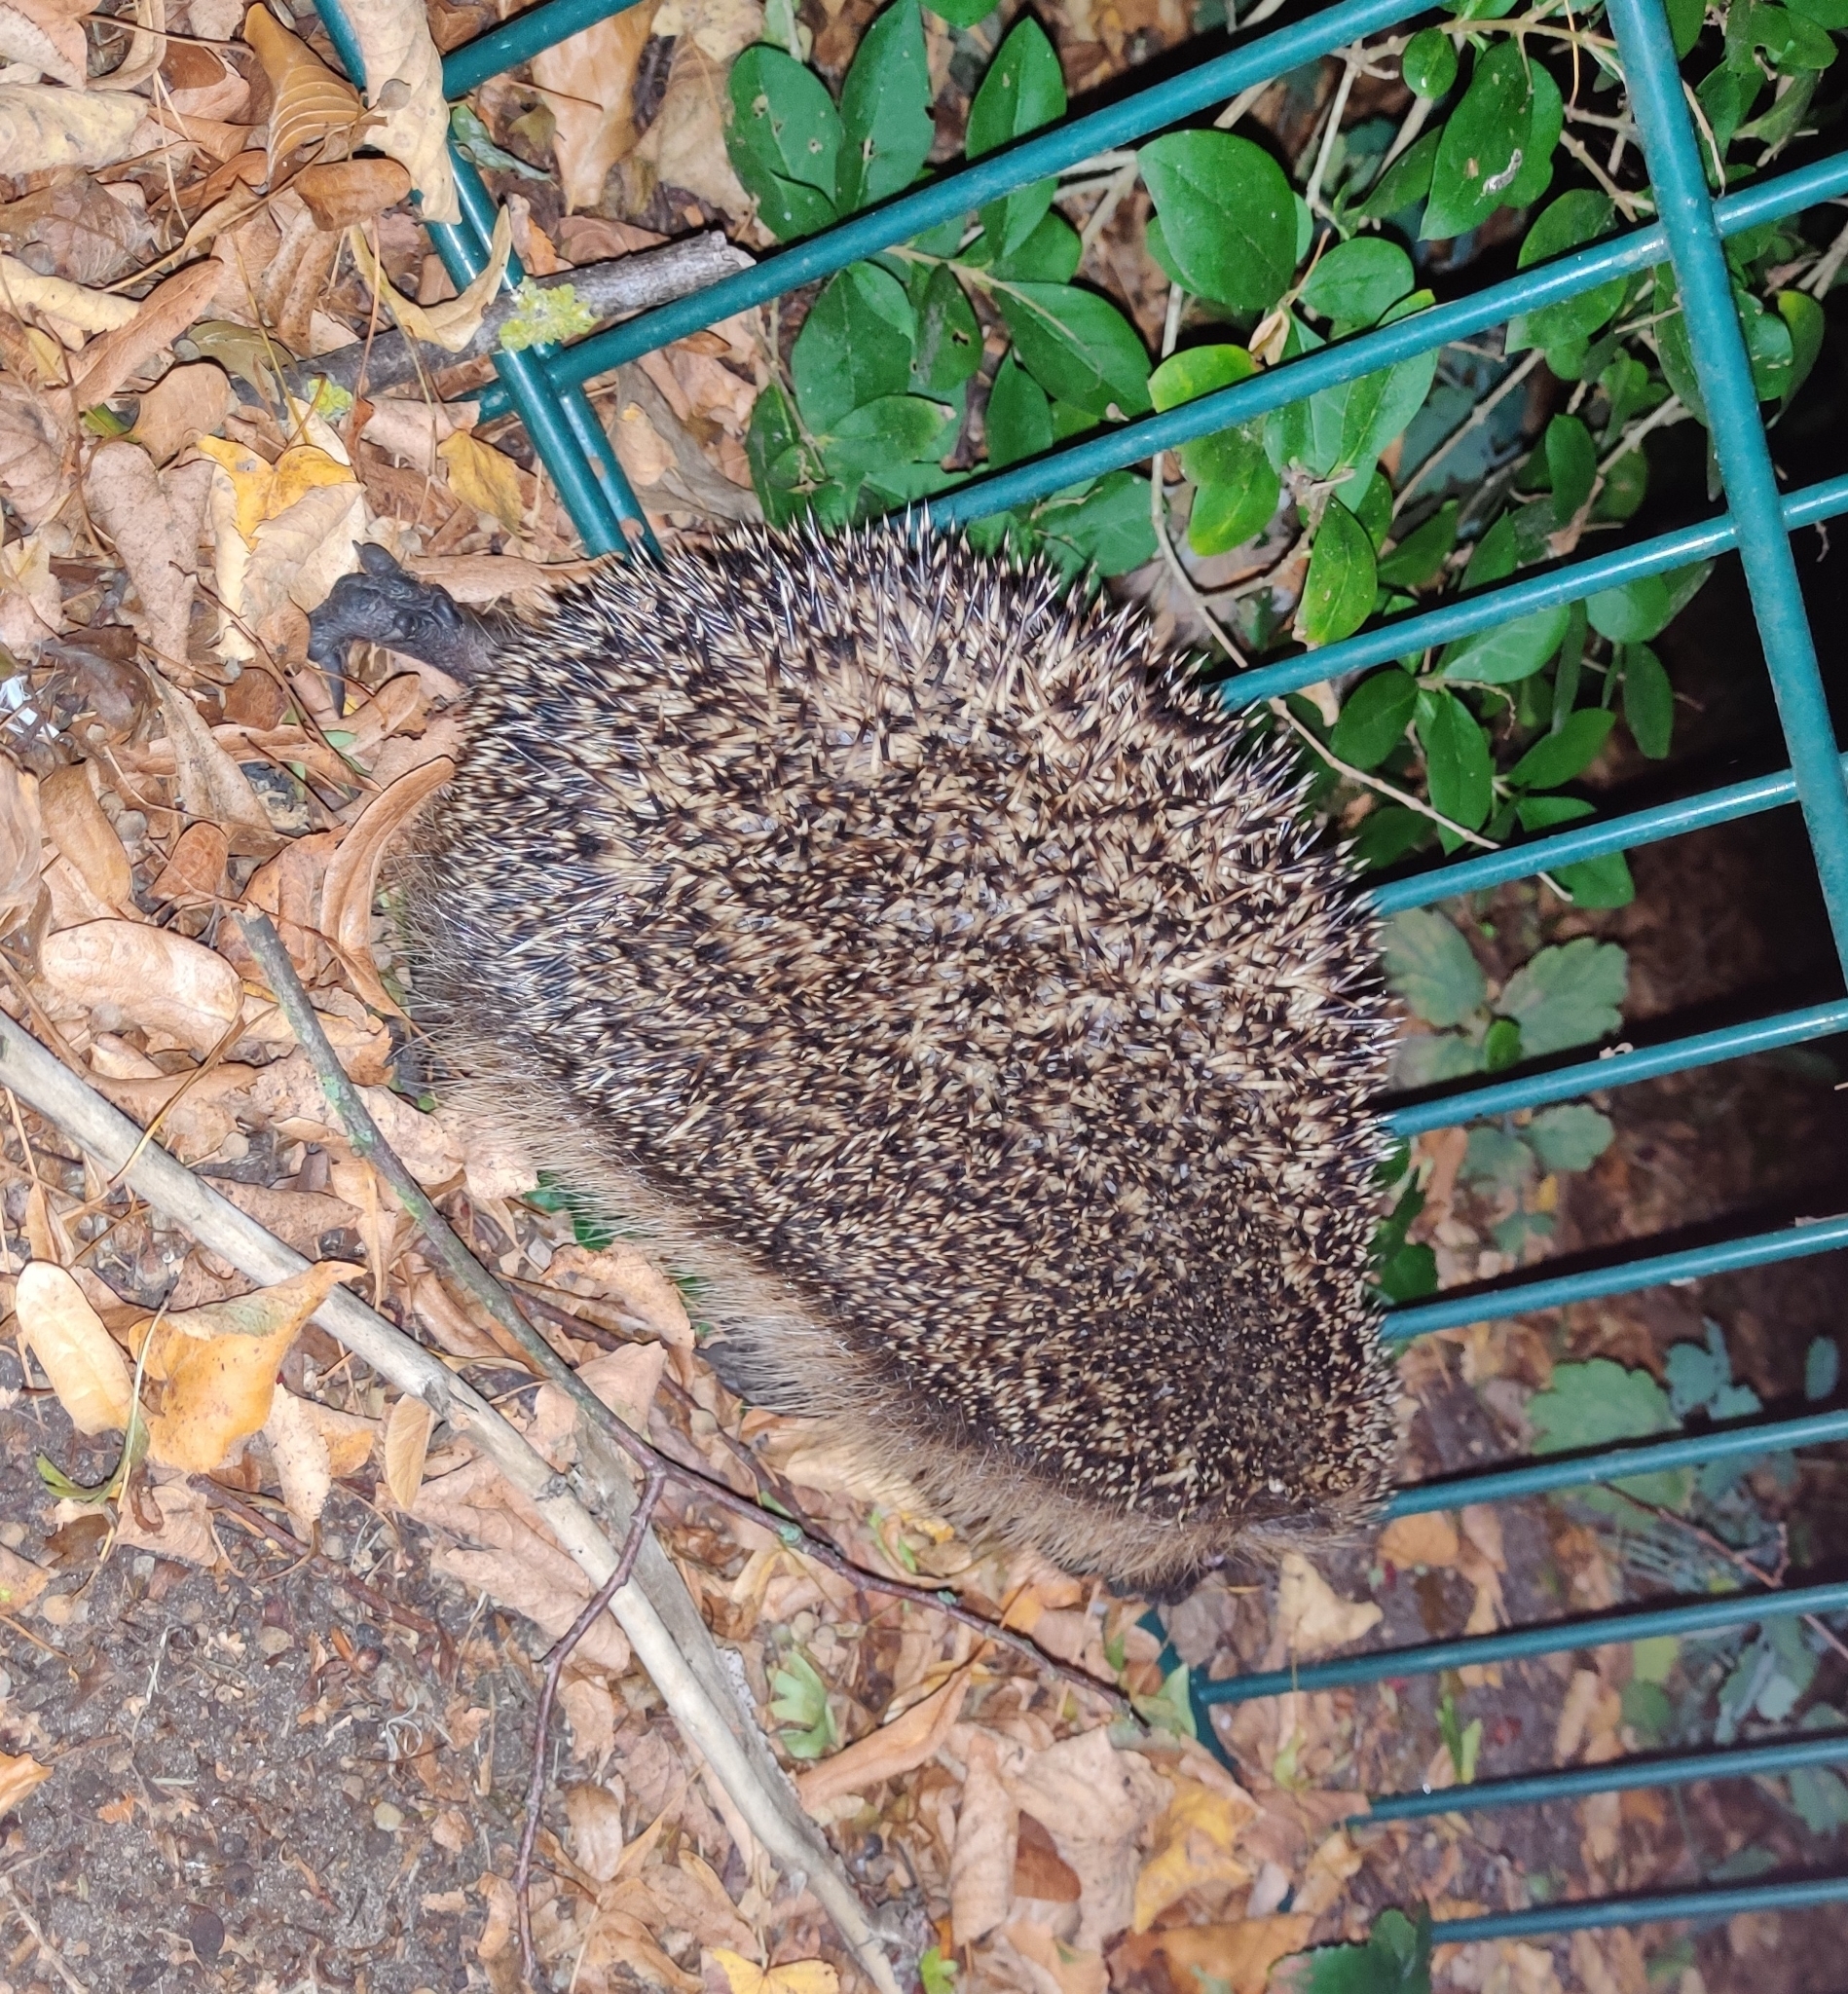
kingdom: Animalia
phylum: Chordata
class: Mammalia
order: Erinaceomorpha
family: Erinaceidae
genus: Erinaceus
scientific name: Erinaceus europaeus
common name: West european hedgehog
